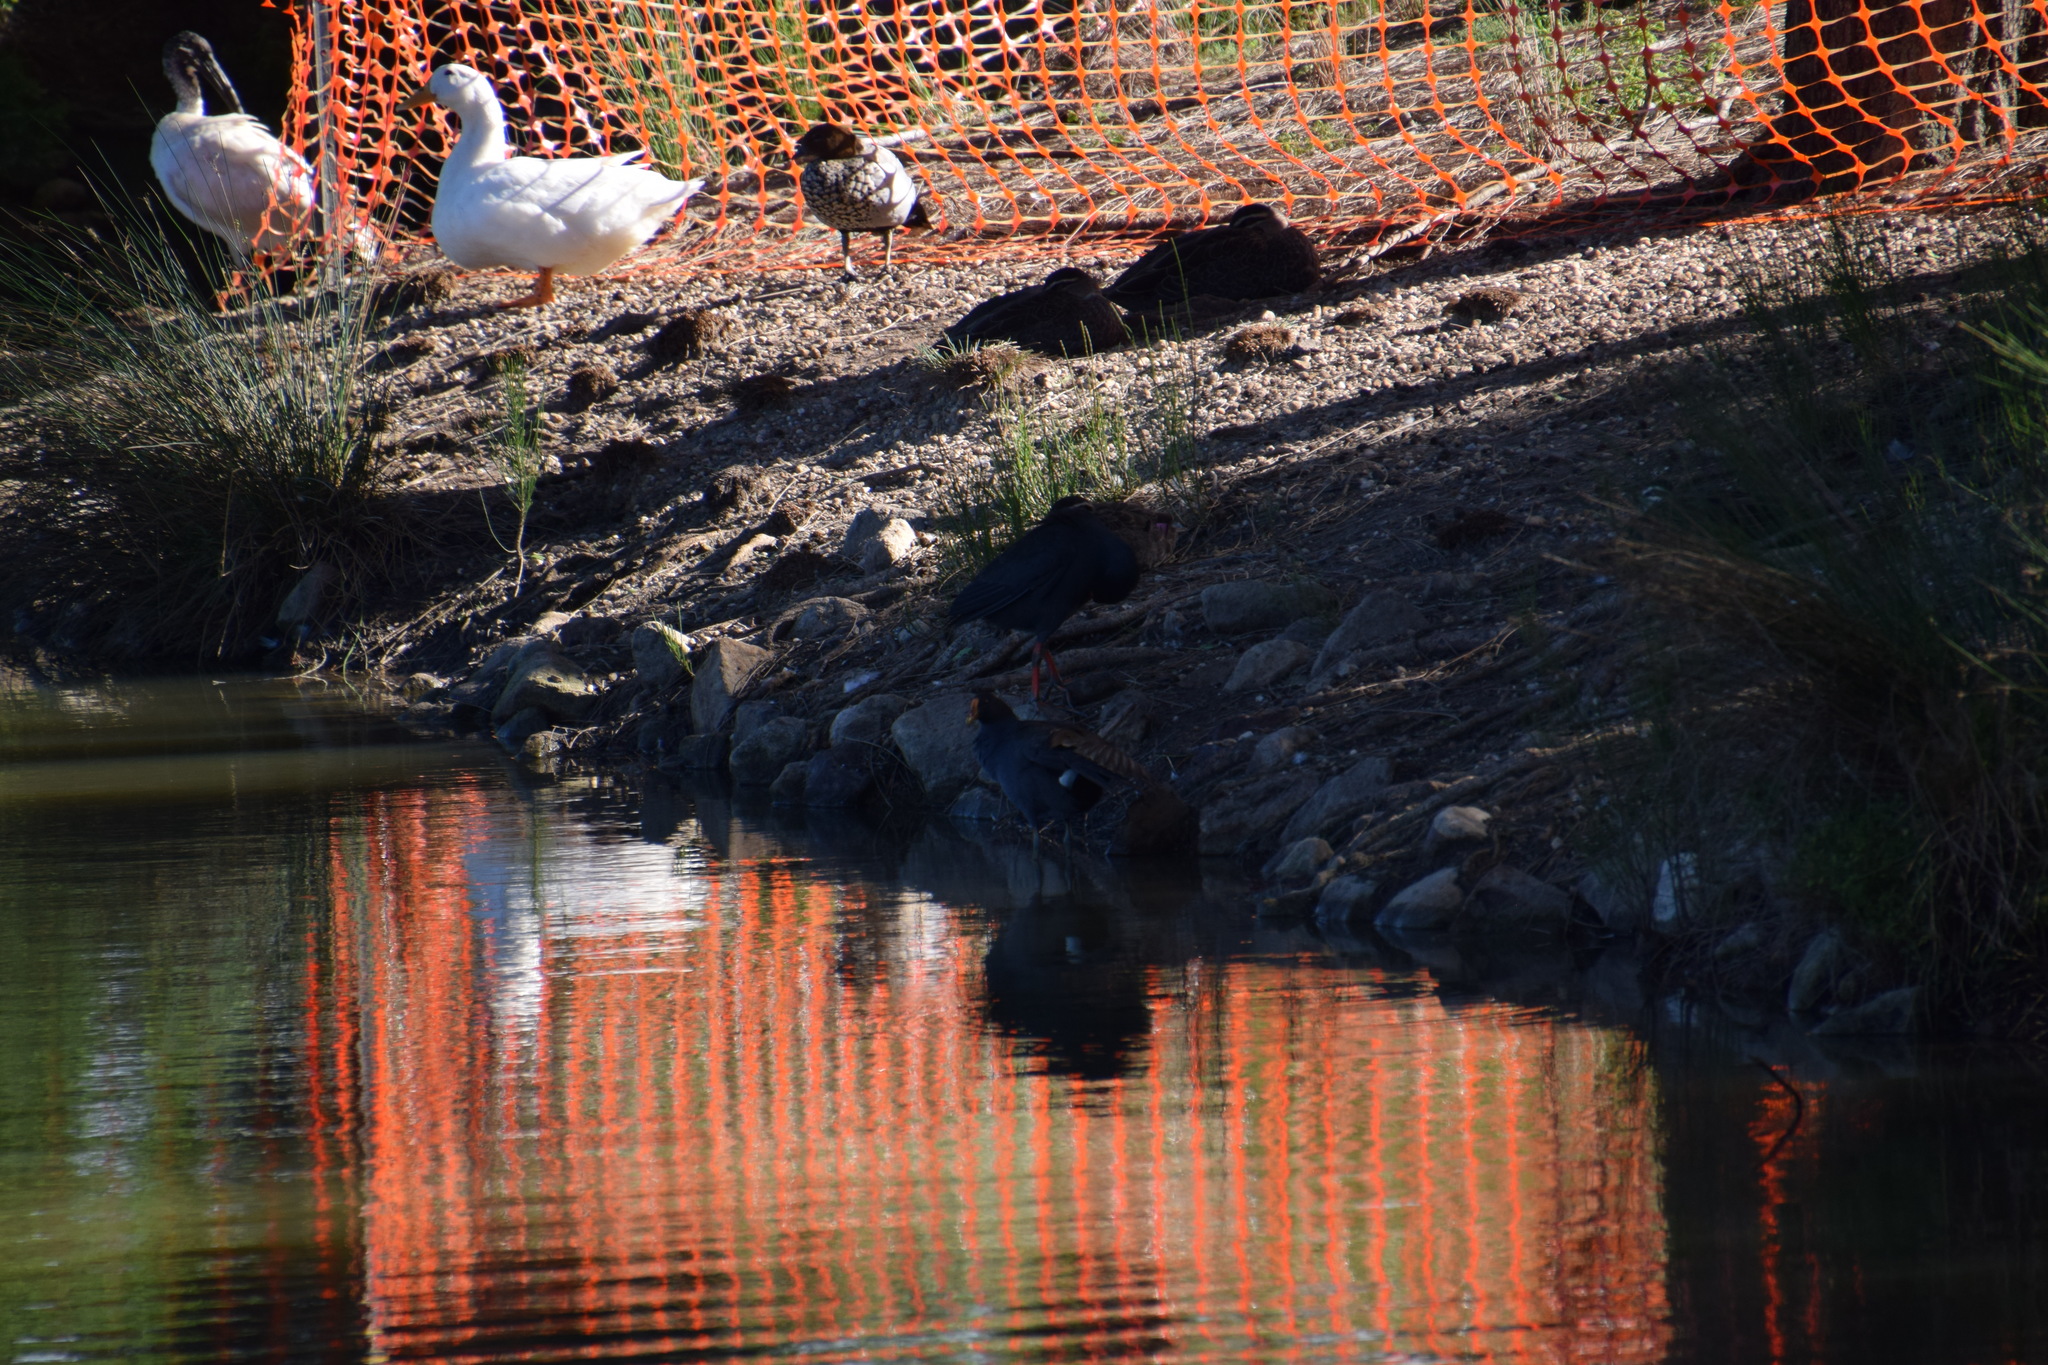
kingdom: Animalia
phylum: Chordata
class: Aves
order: Gruiformes
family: Rallidae
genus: Gallinula
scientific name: Gallinula tenebrosa
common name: Dusky moorhen
